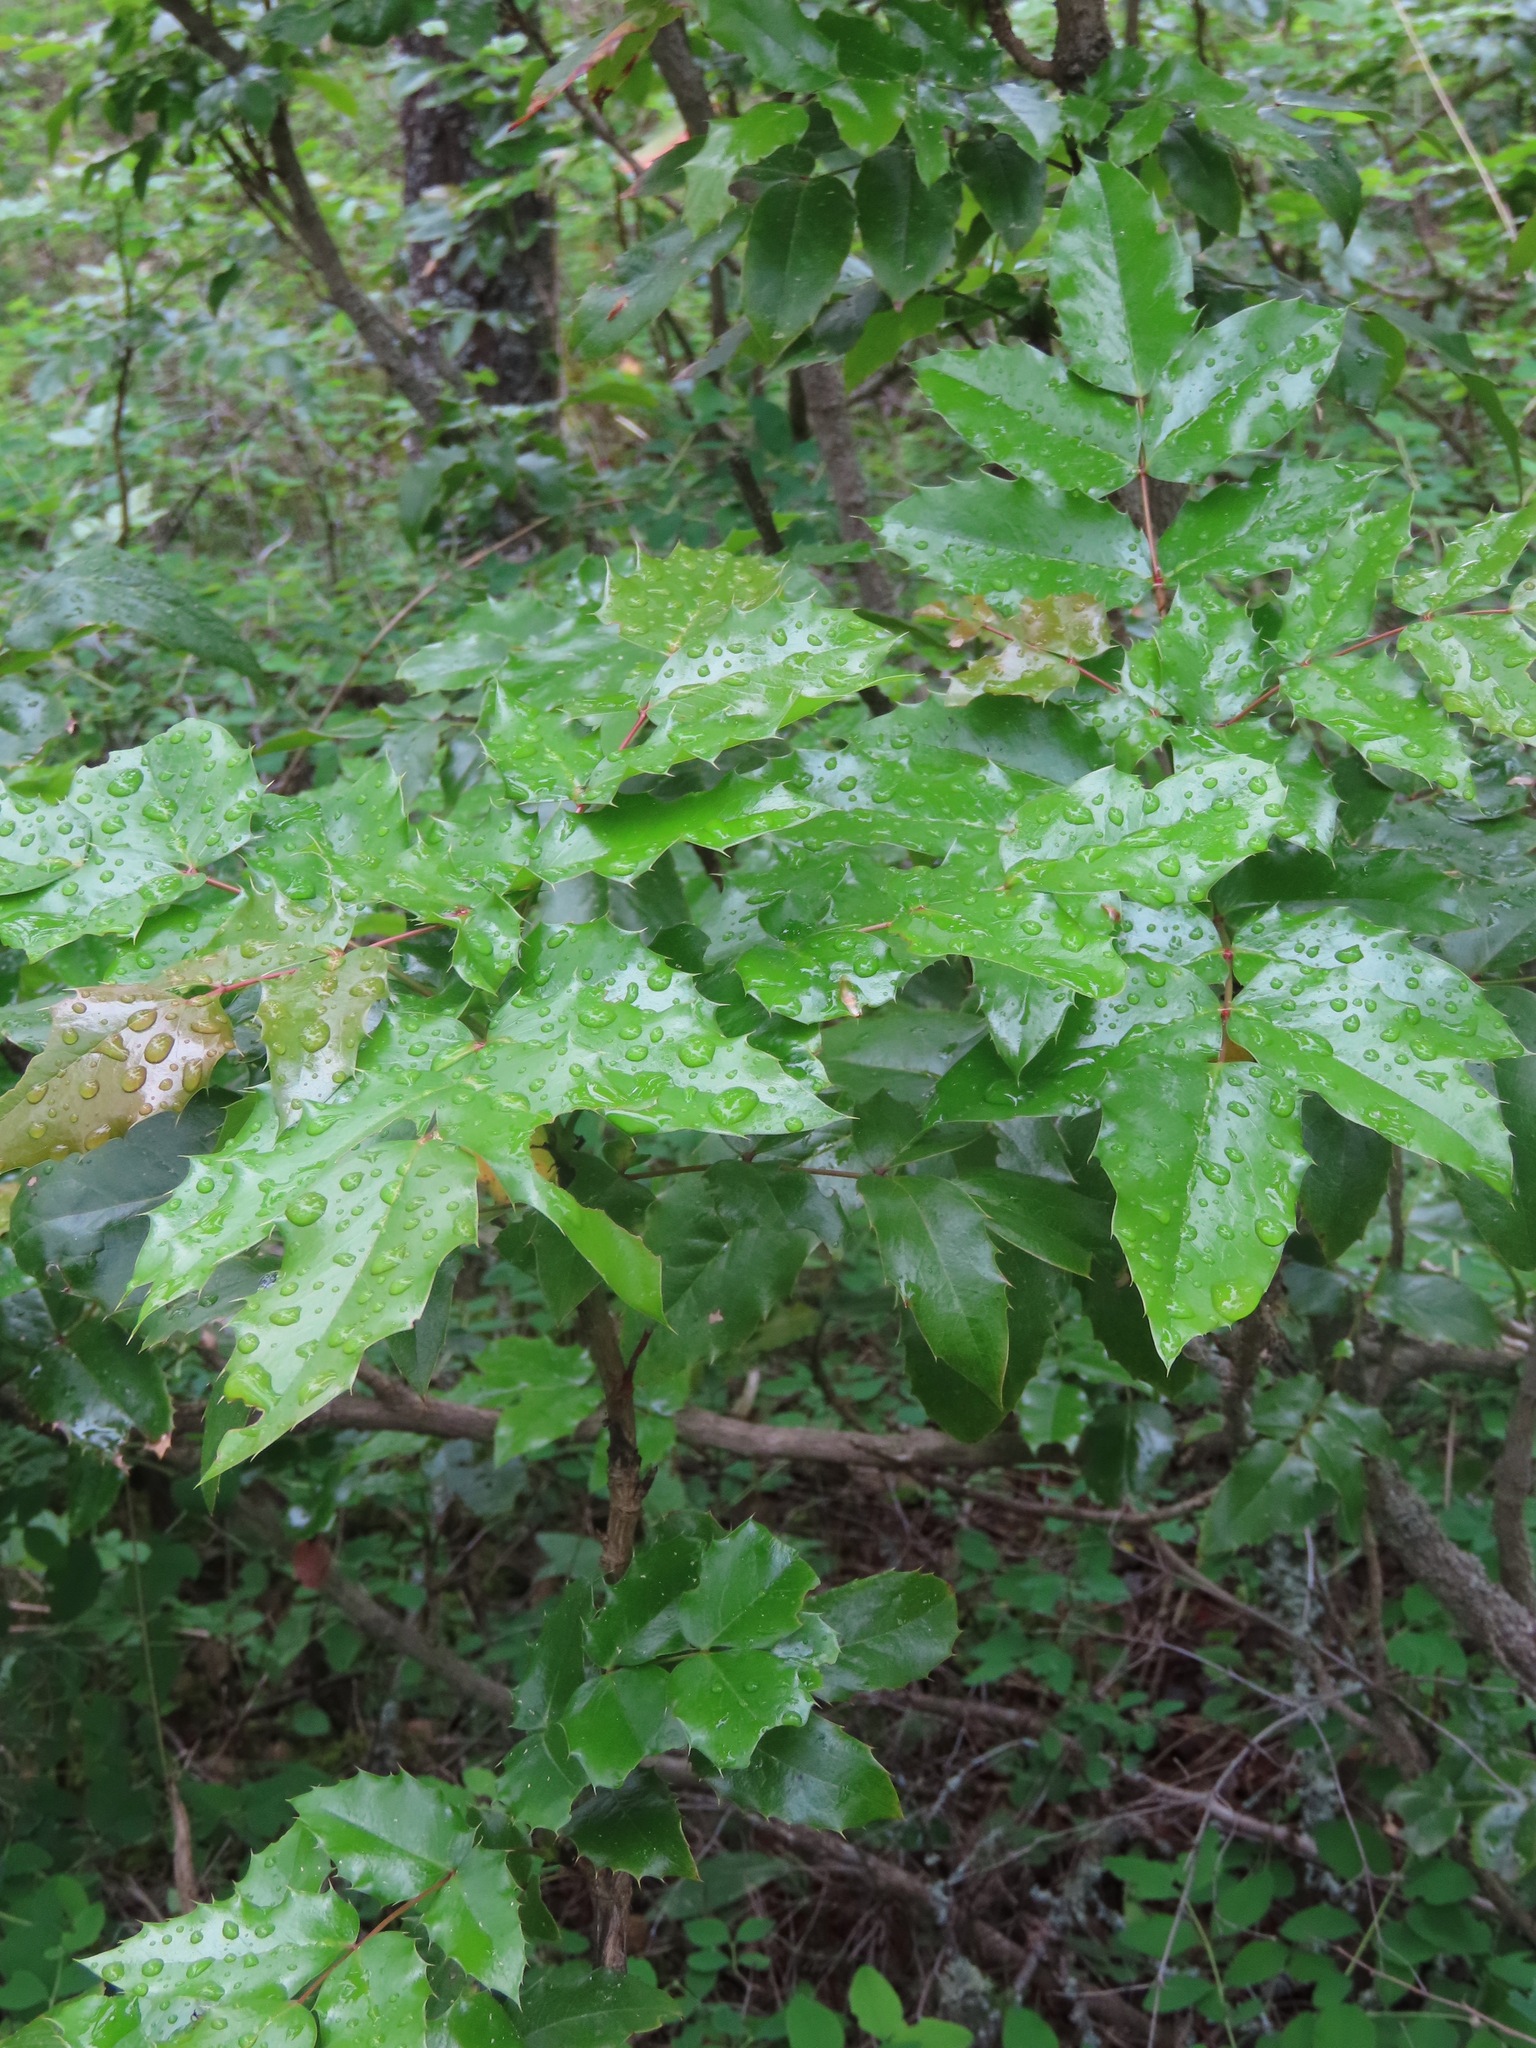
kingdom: Plantae
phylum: Tracheophyta
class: Magnoliopsida
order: Ranunculales
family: Berberidaceae
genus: Mahonia
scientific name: Mahonia aquifolium
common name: Oregon-grape
